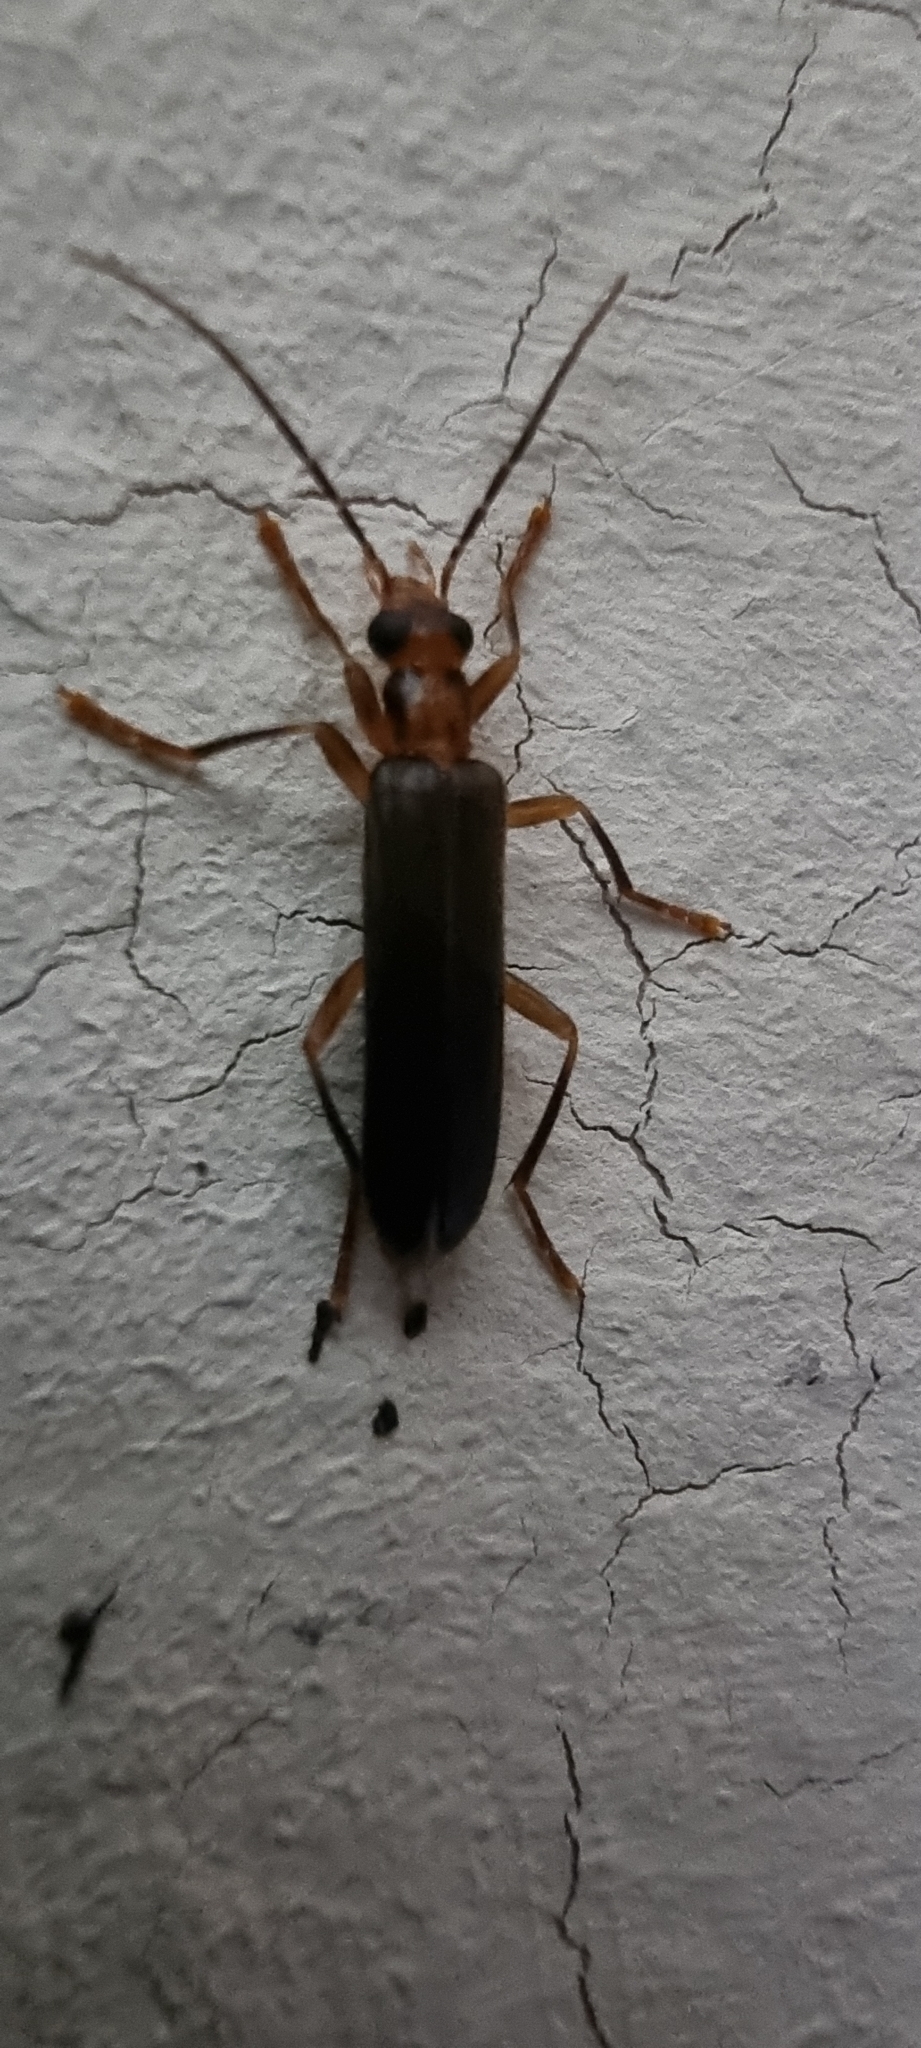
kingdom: Animalia
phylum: Arthropoda
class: Insecta
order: Coleoptera
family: Oedemeridae
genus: Nacerdes
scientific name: Nacerdes carniolica
